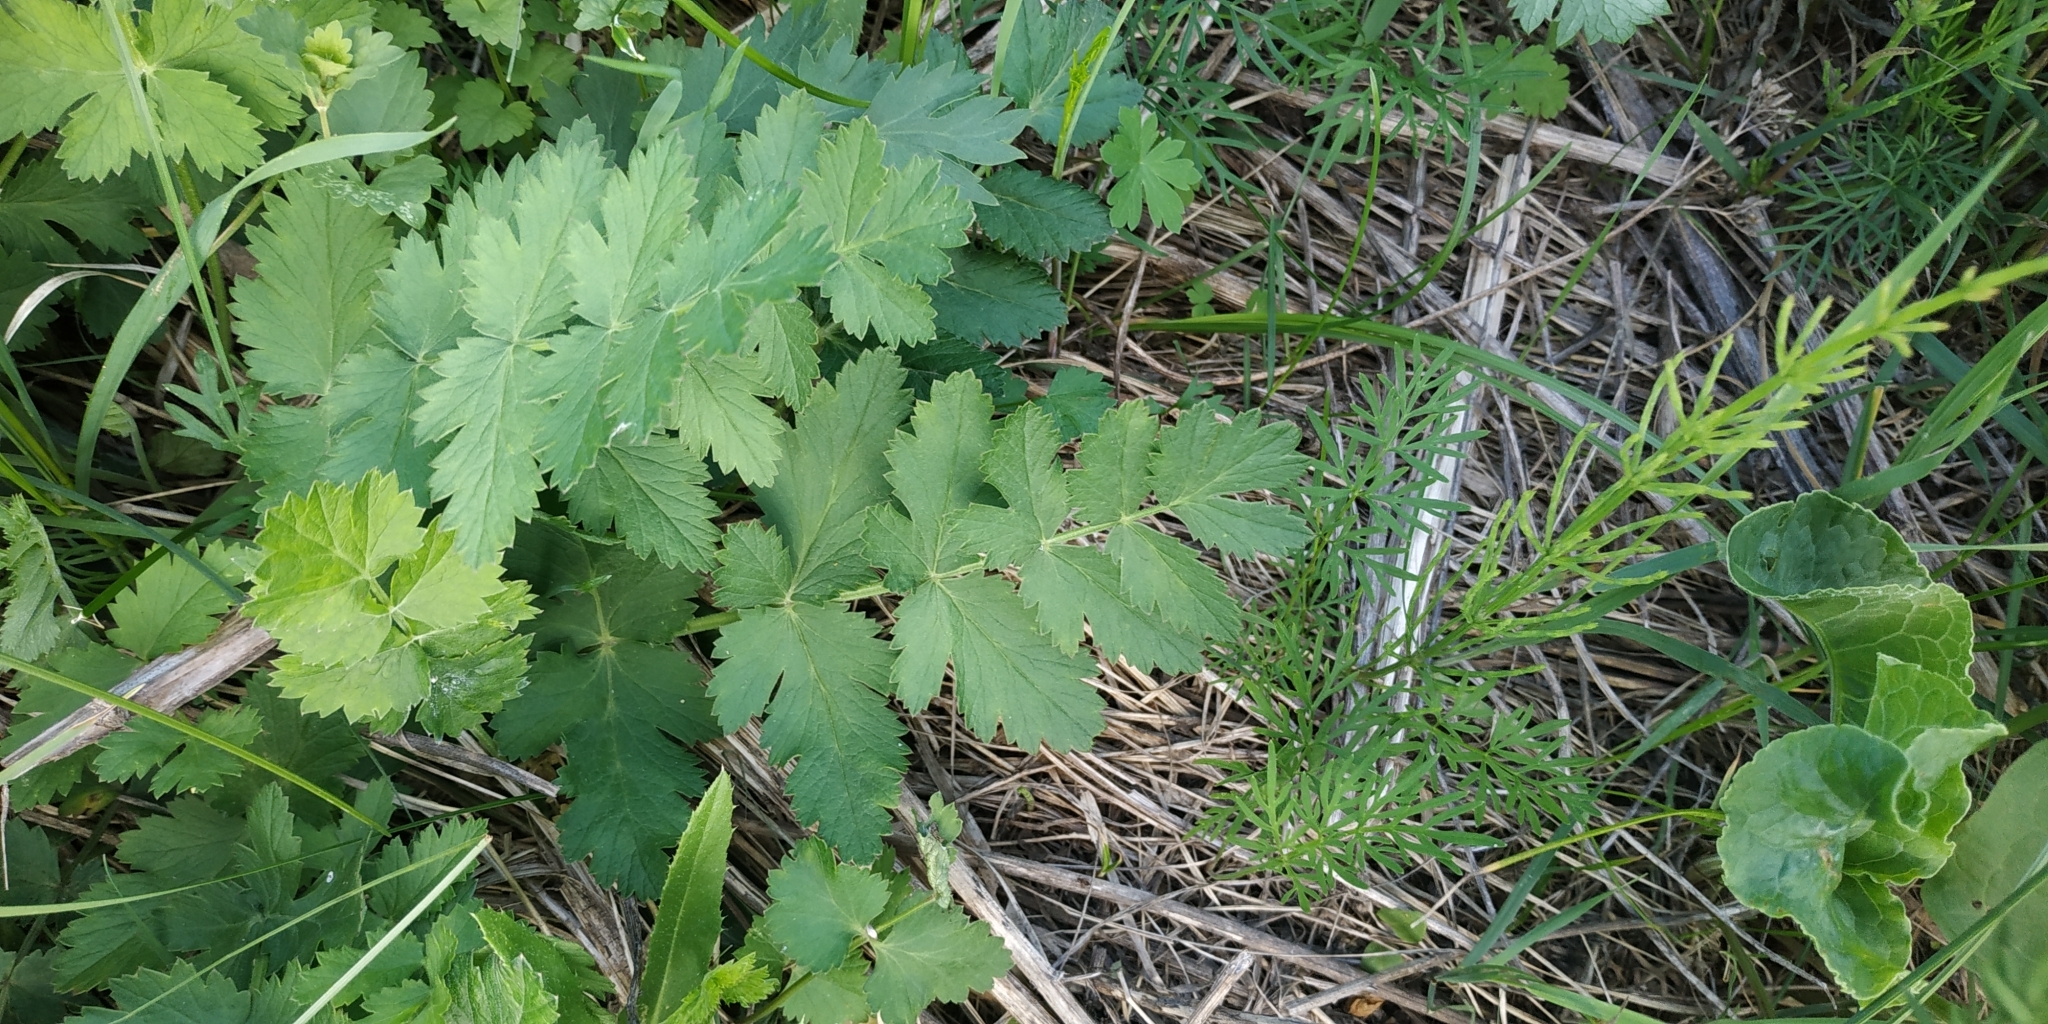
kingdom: Plantae
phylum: Tracheophyta
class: Magnoliopsida
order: Apiales
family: Apiaceae
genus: Pastinaca
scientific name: Pastinaca sativa
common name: Wild parsnip
